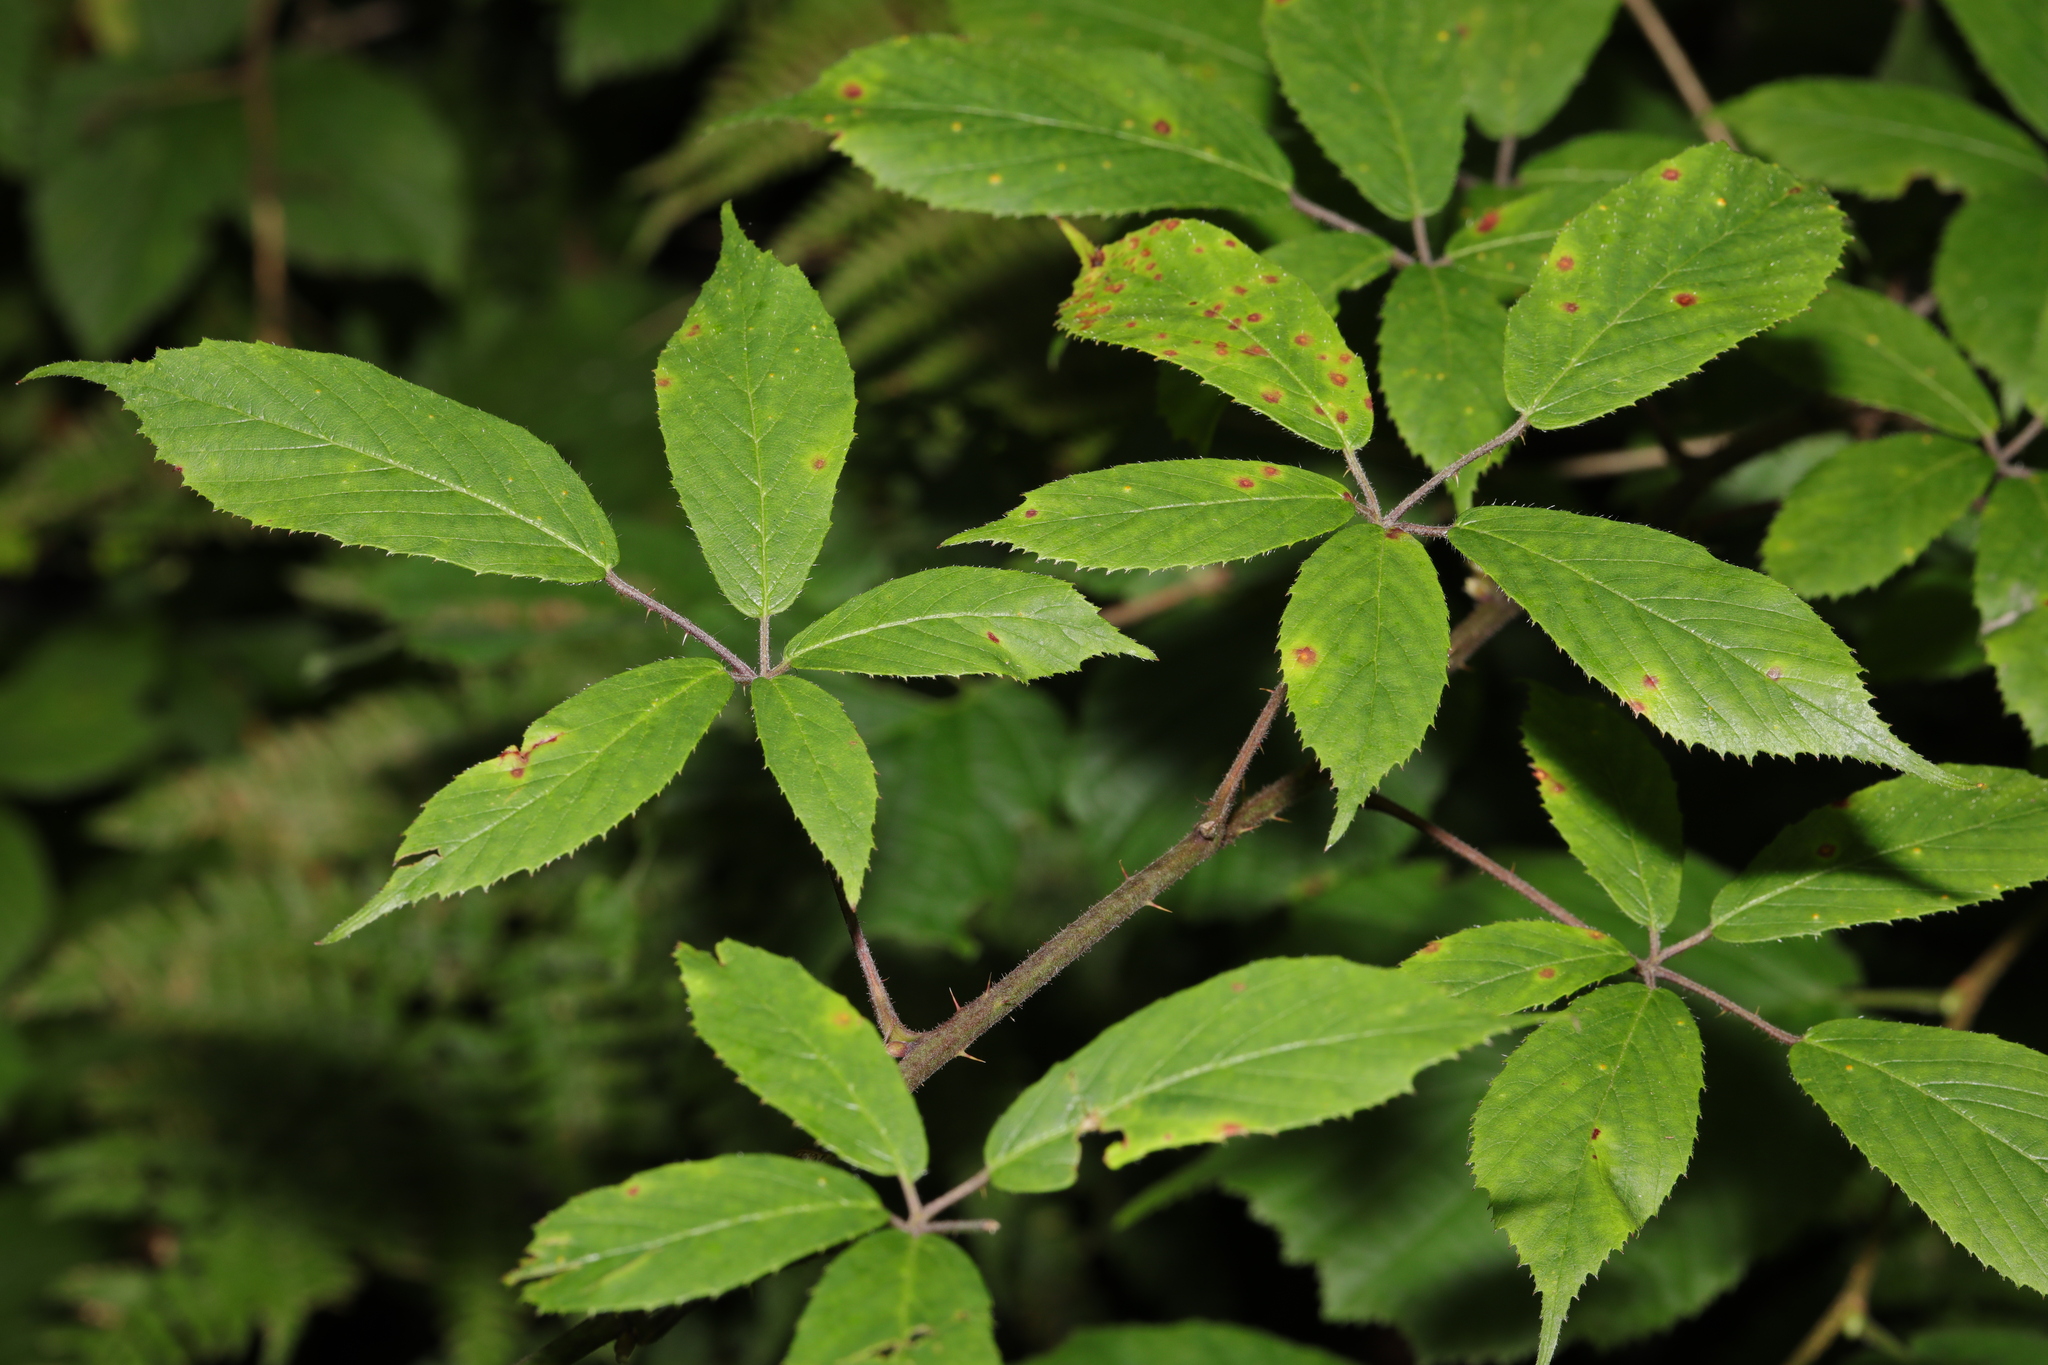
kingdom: Plantae
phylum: Tracheophyta
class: Magnoliopsida
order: Rosales
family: Rosaceae
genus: Rubus
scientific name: Rubus rufescens
